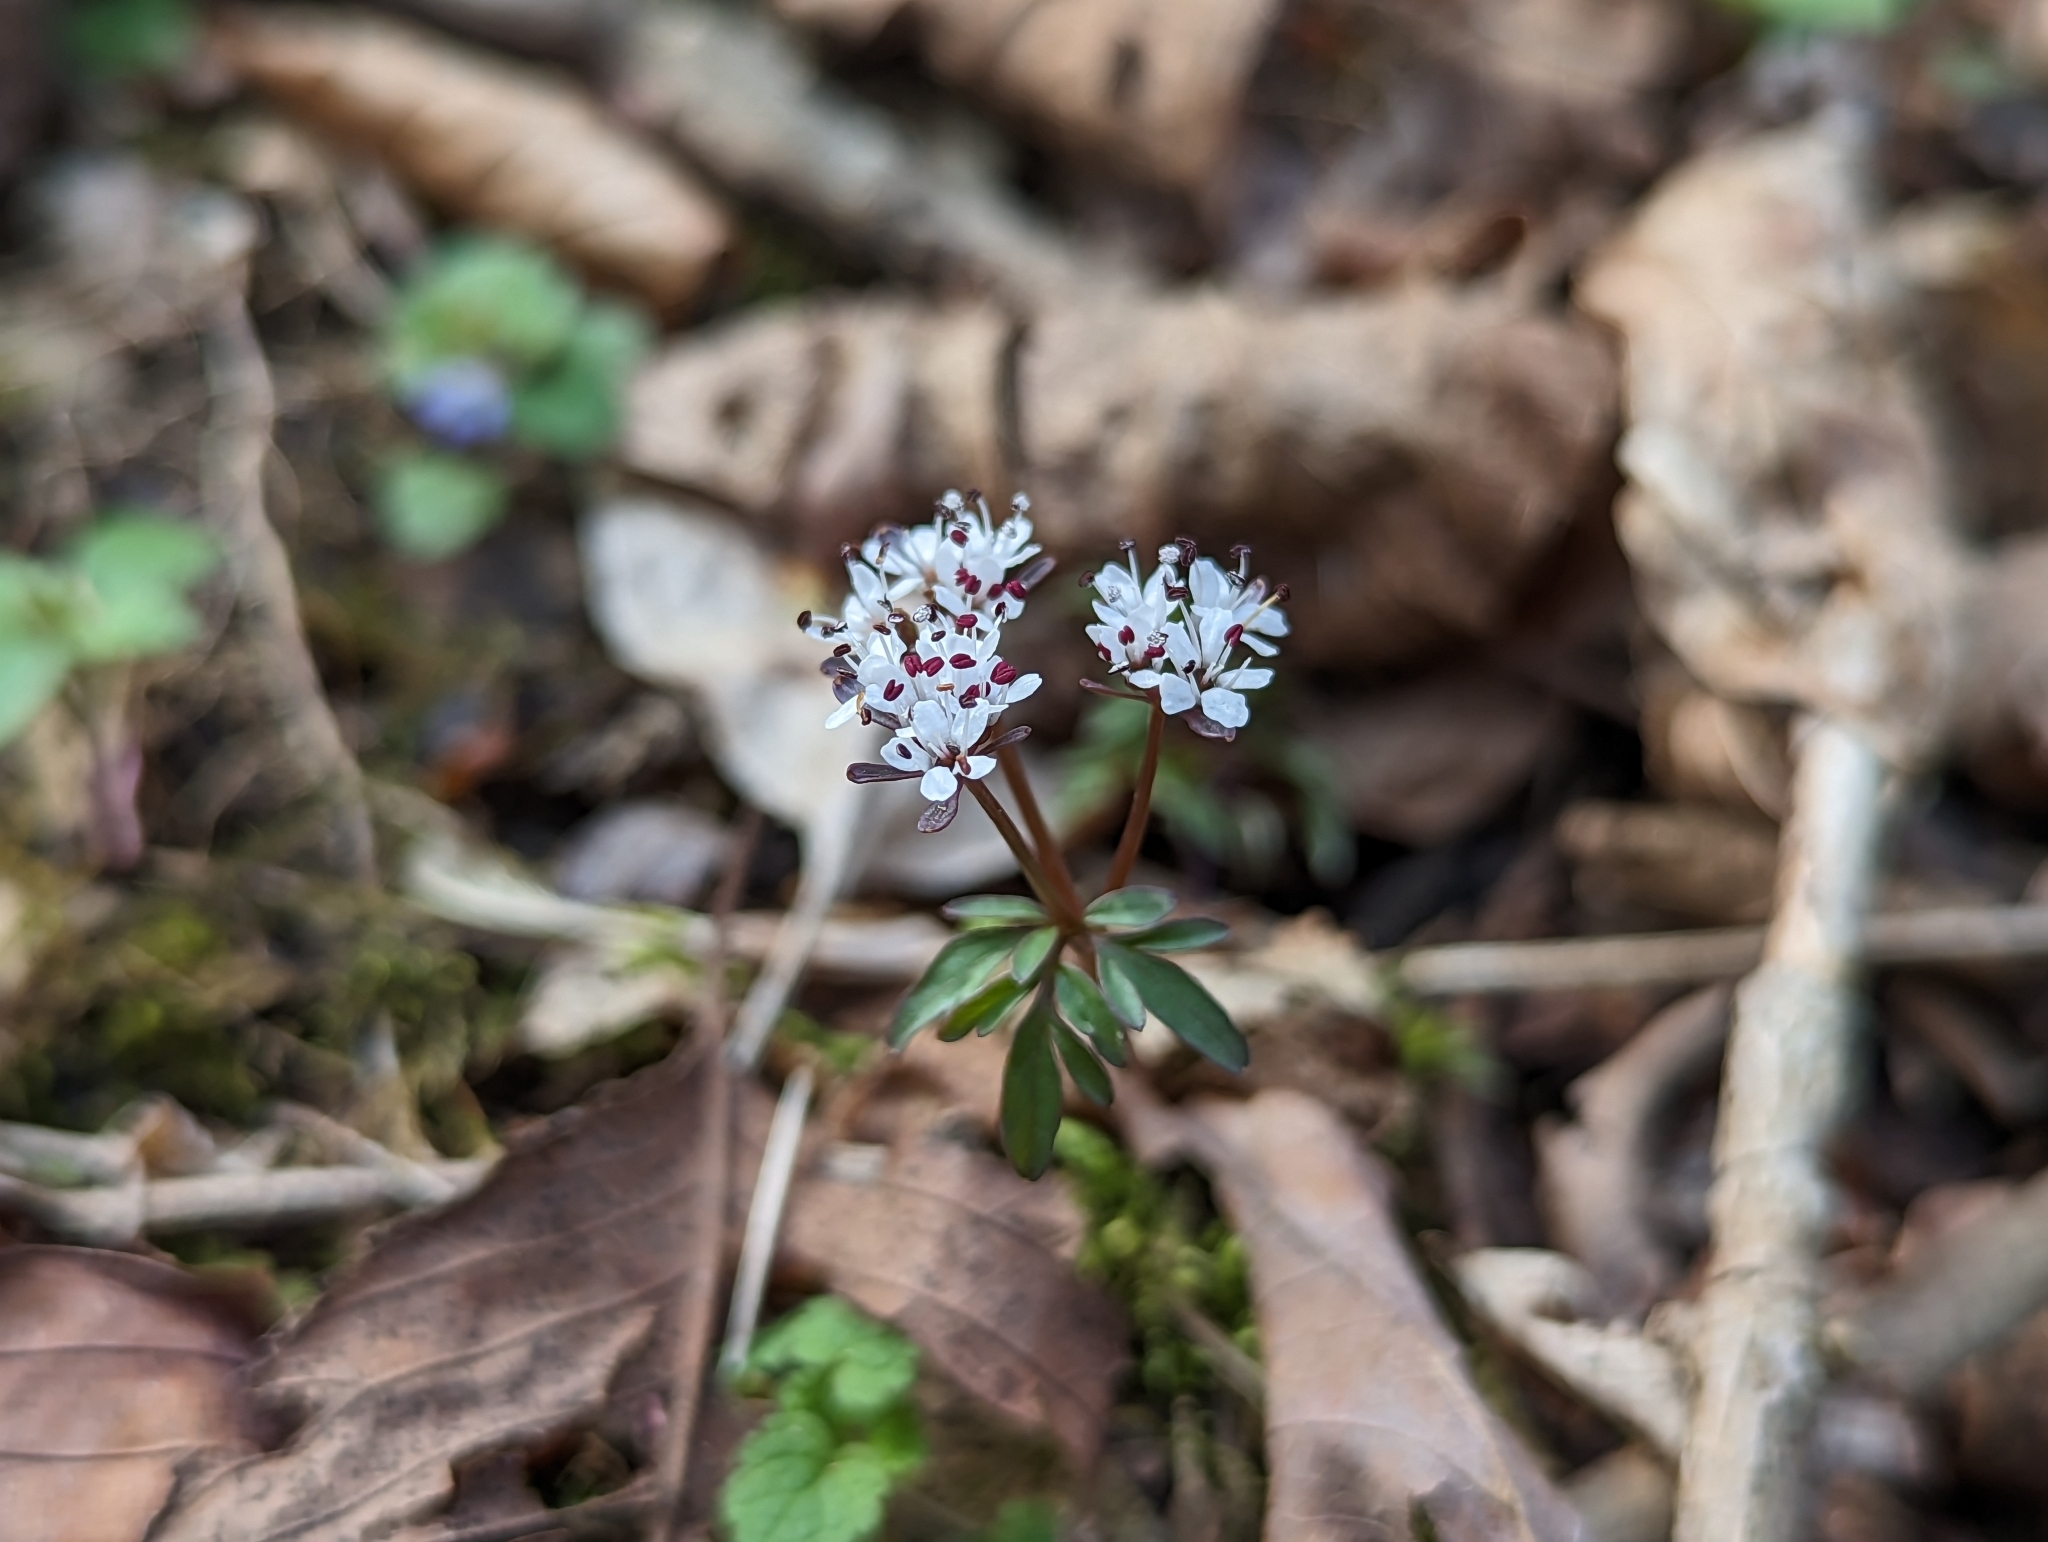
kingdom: Plantae
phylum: Tracheophyta
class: Magnoliopsida
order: Apiales
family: Apiaceae
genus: Erigenia
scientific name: Erigenia bulbosa
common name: Pepper-and-salt
